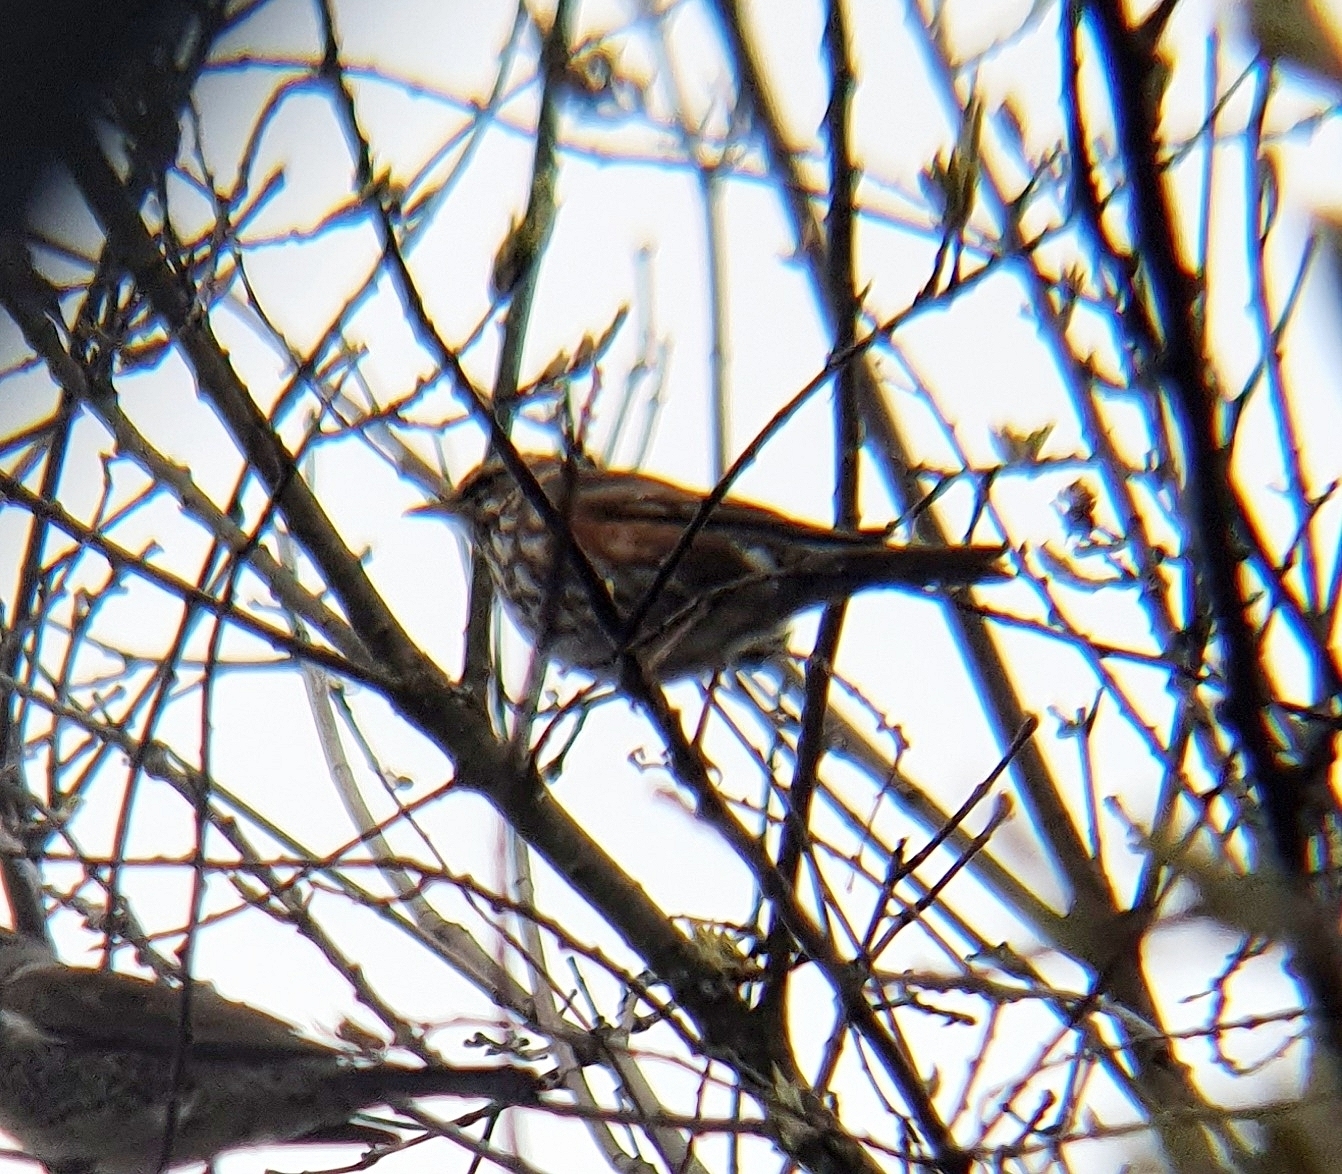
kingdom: Animalia
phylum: Chordata
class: Aves
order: Passeriformes
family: Turdidae
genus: Turdus
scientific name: Turdus iliacus
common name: Redwing
